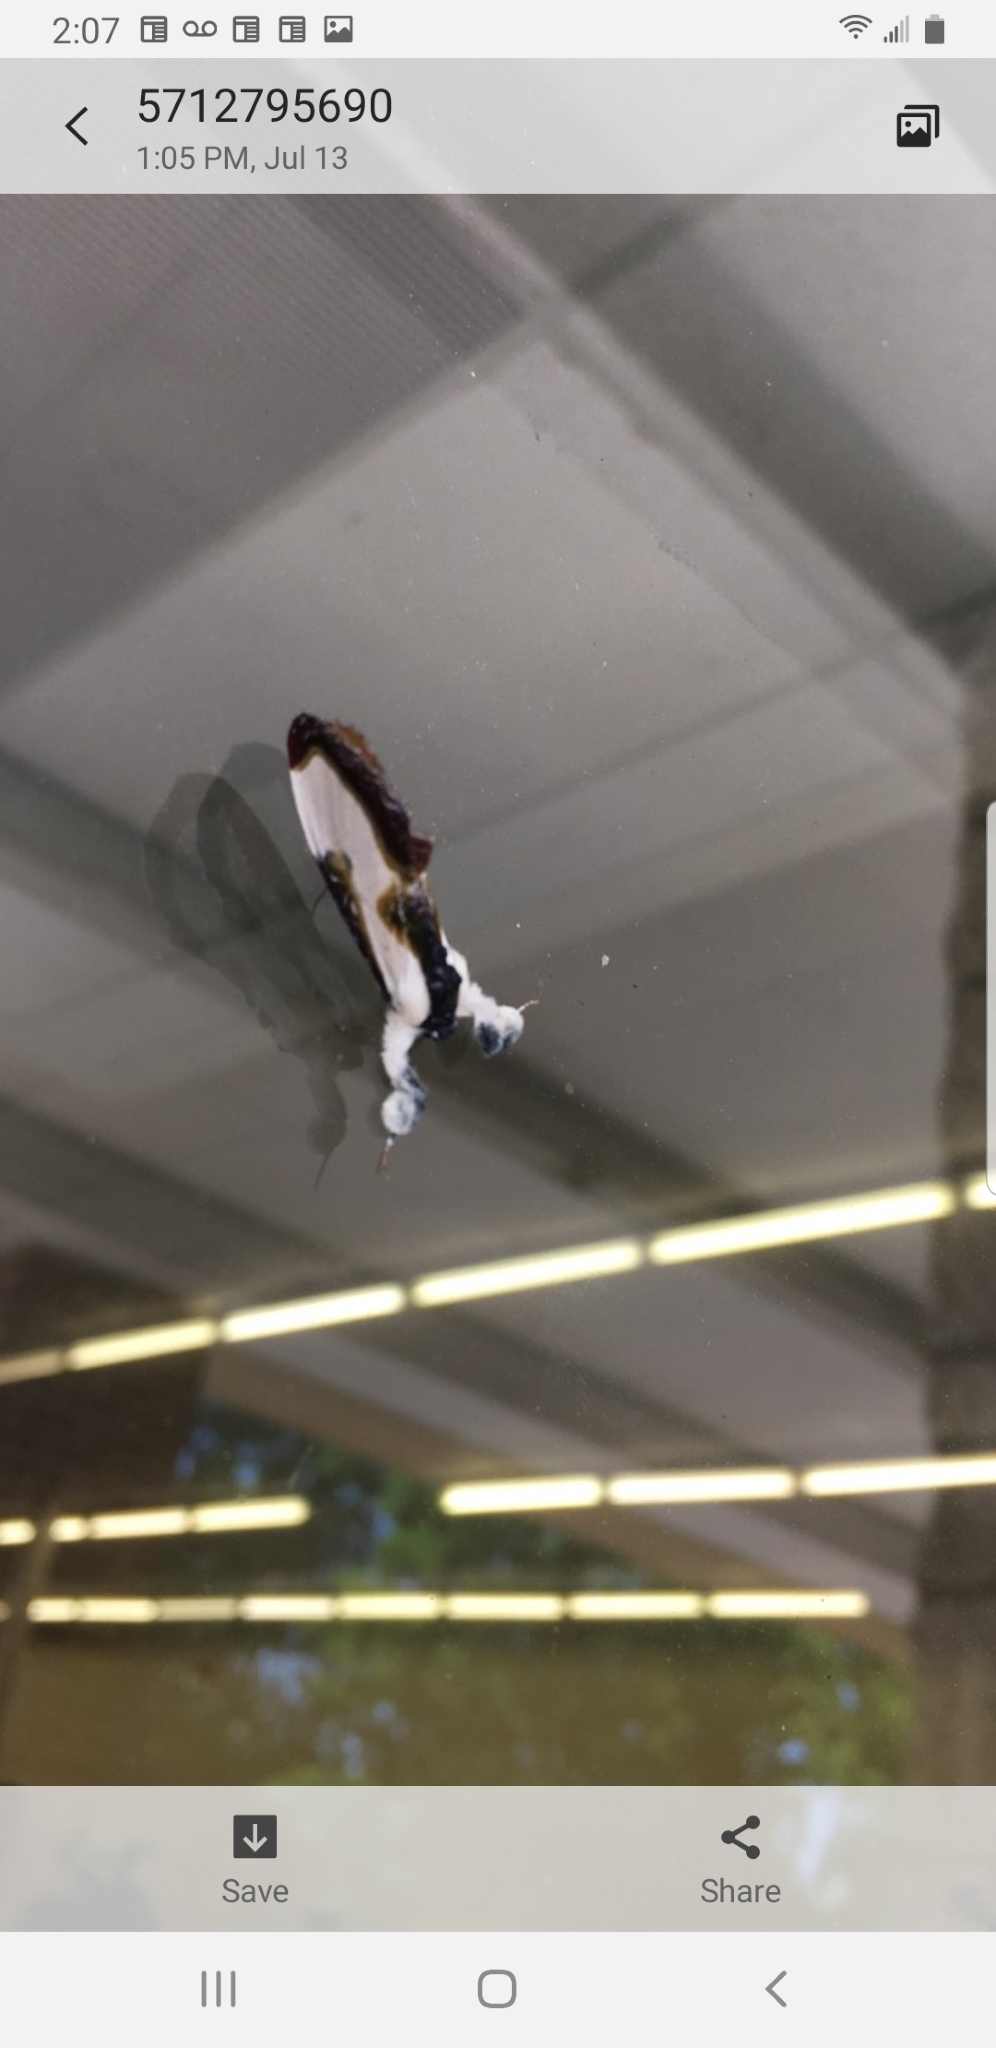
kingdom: Animalia
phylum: Arthropoda
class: Insecta
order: Lepidoptera
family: Noctuidae
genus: Eudryas
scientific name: Eudryas grata
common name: Beautiful wood-nymph
